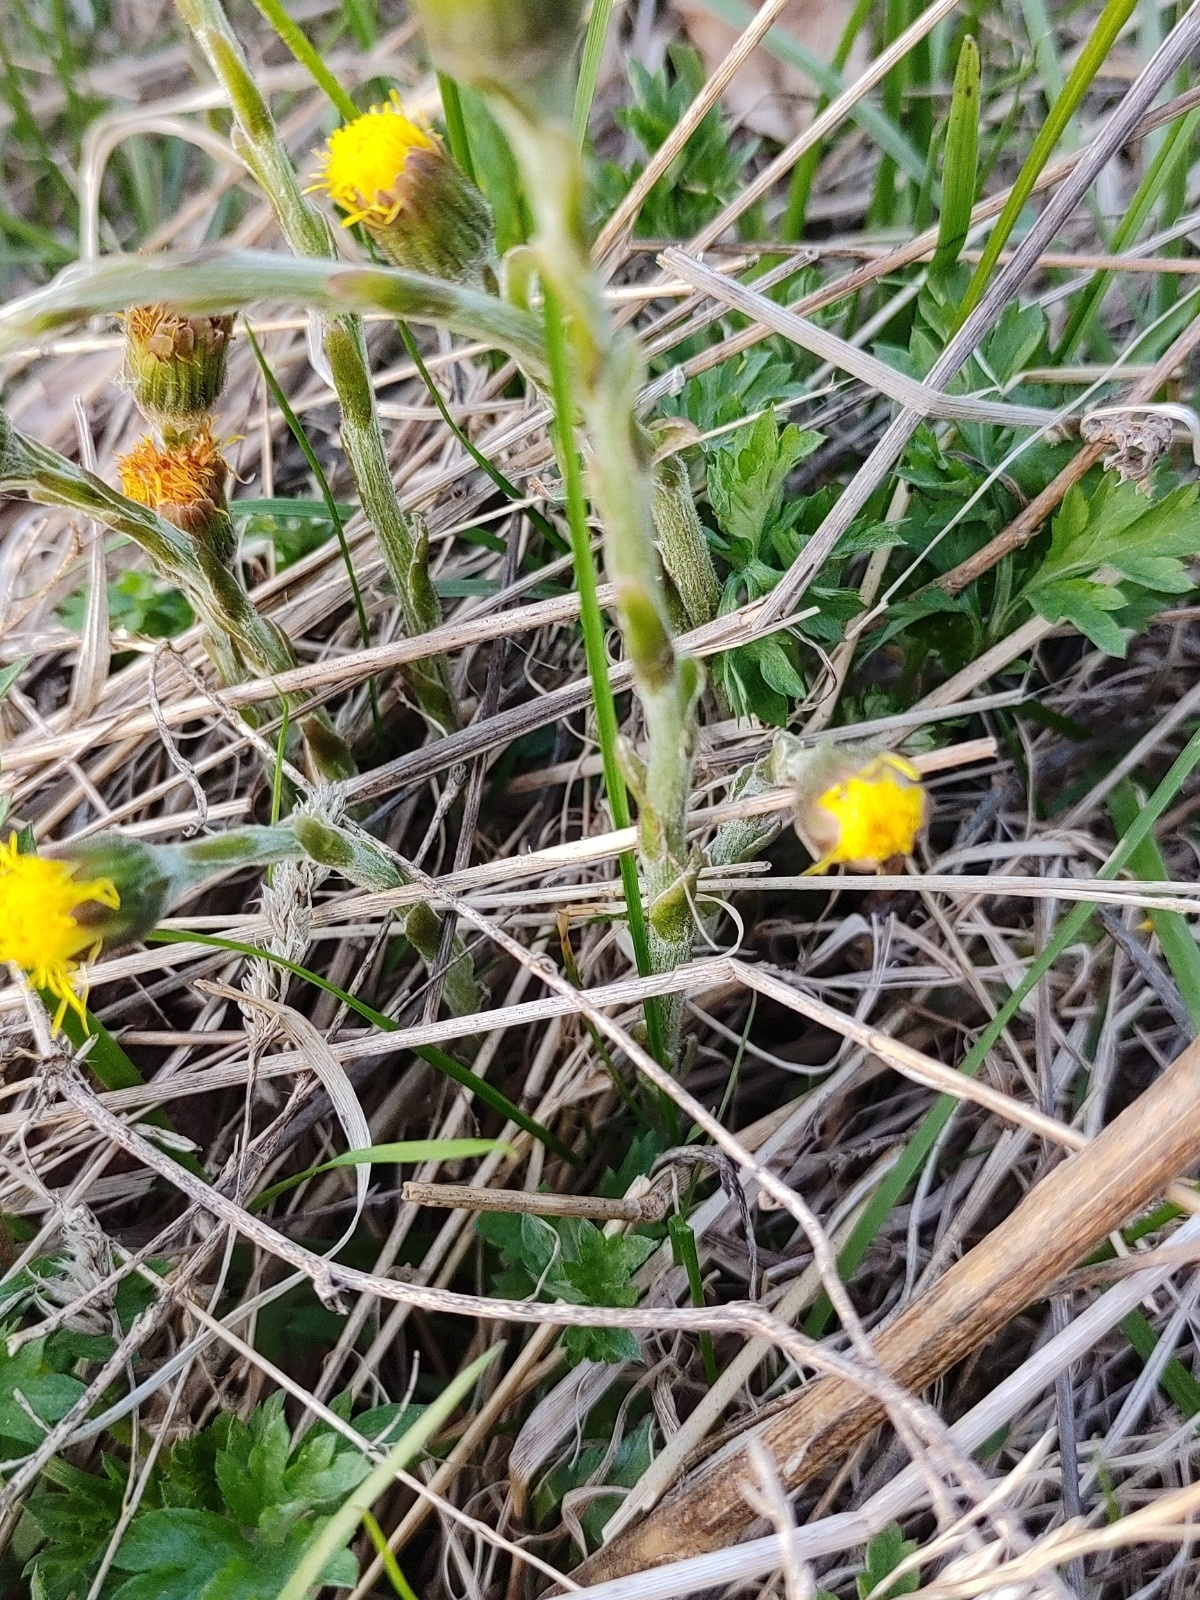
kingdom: Plantae
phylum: Tracheophyta
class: Magnoliopsida
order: Asterales
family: Asteraceae
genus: Tussilago
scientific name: Tussilago farfara
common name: Coltsfoot
